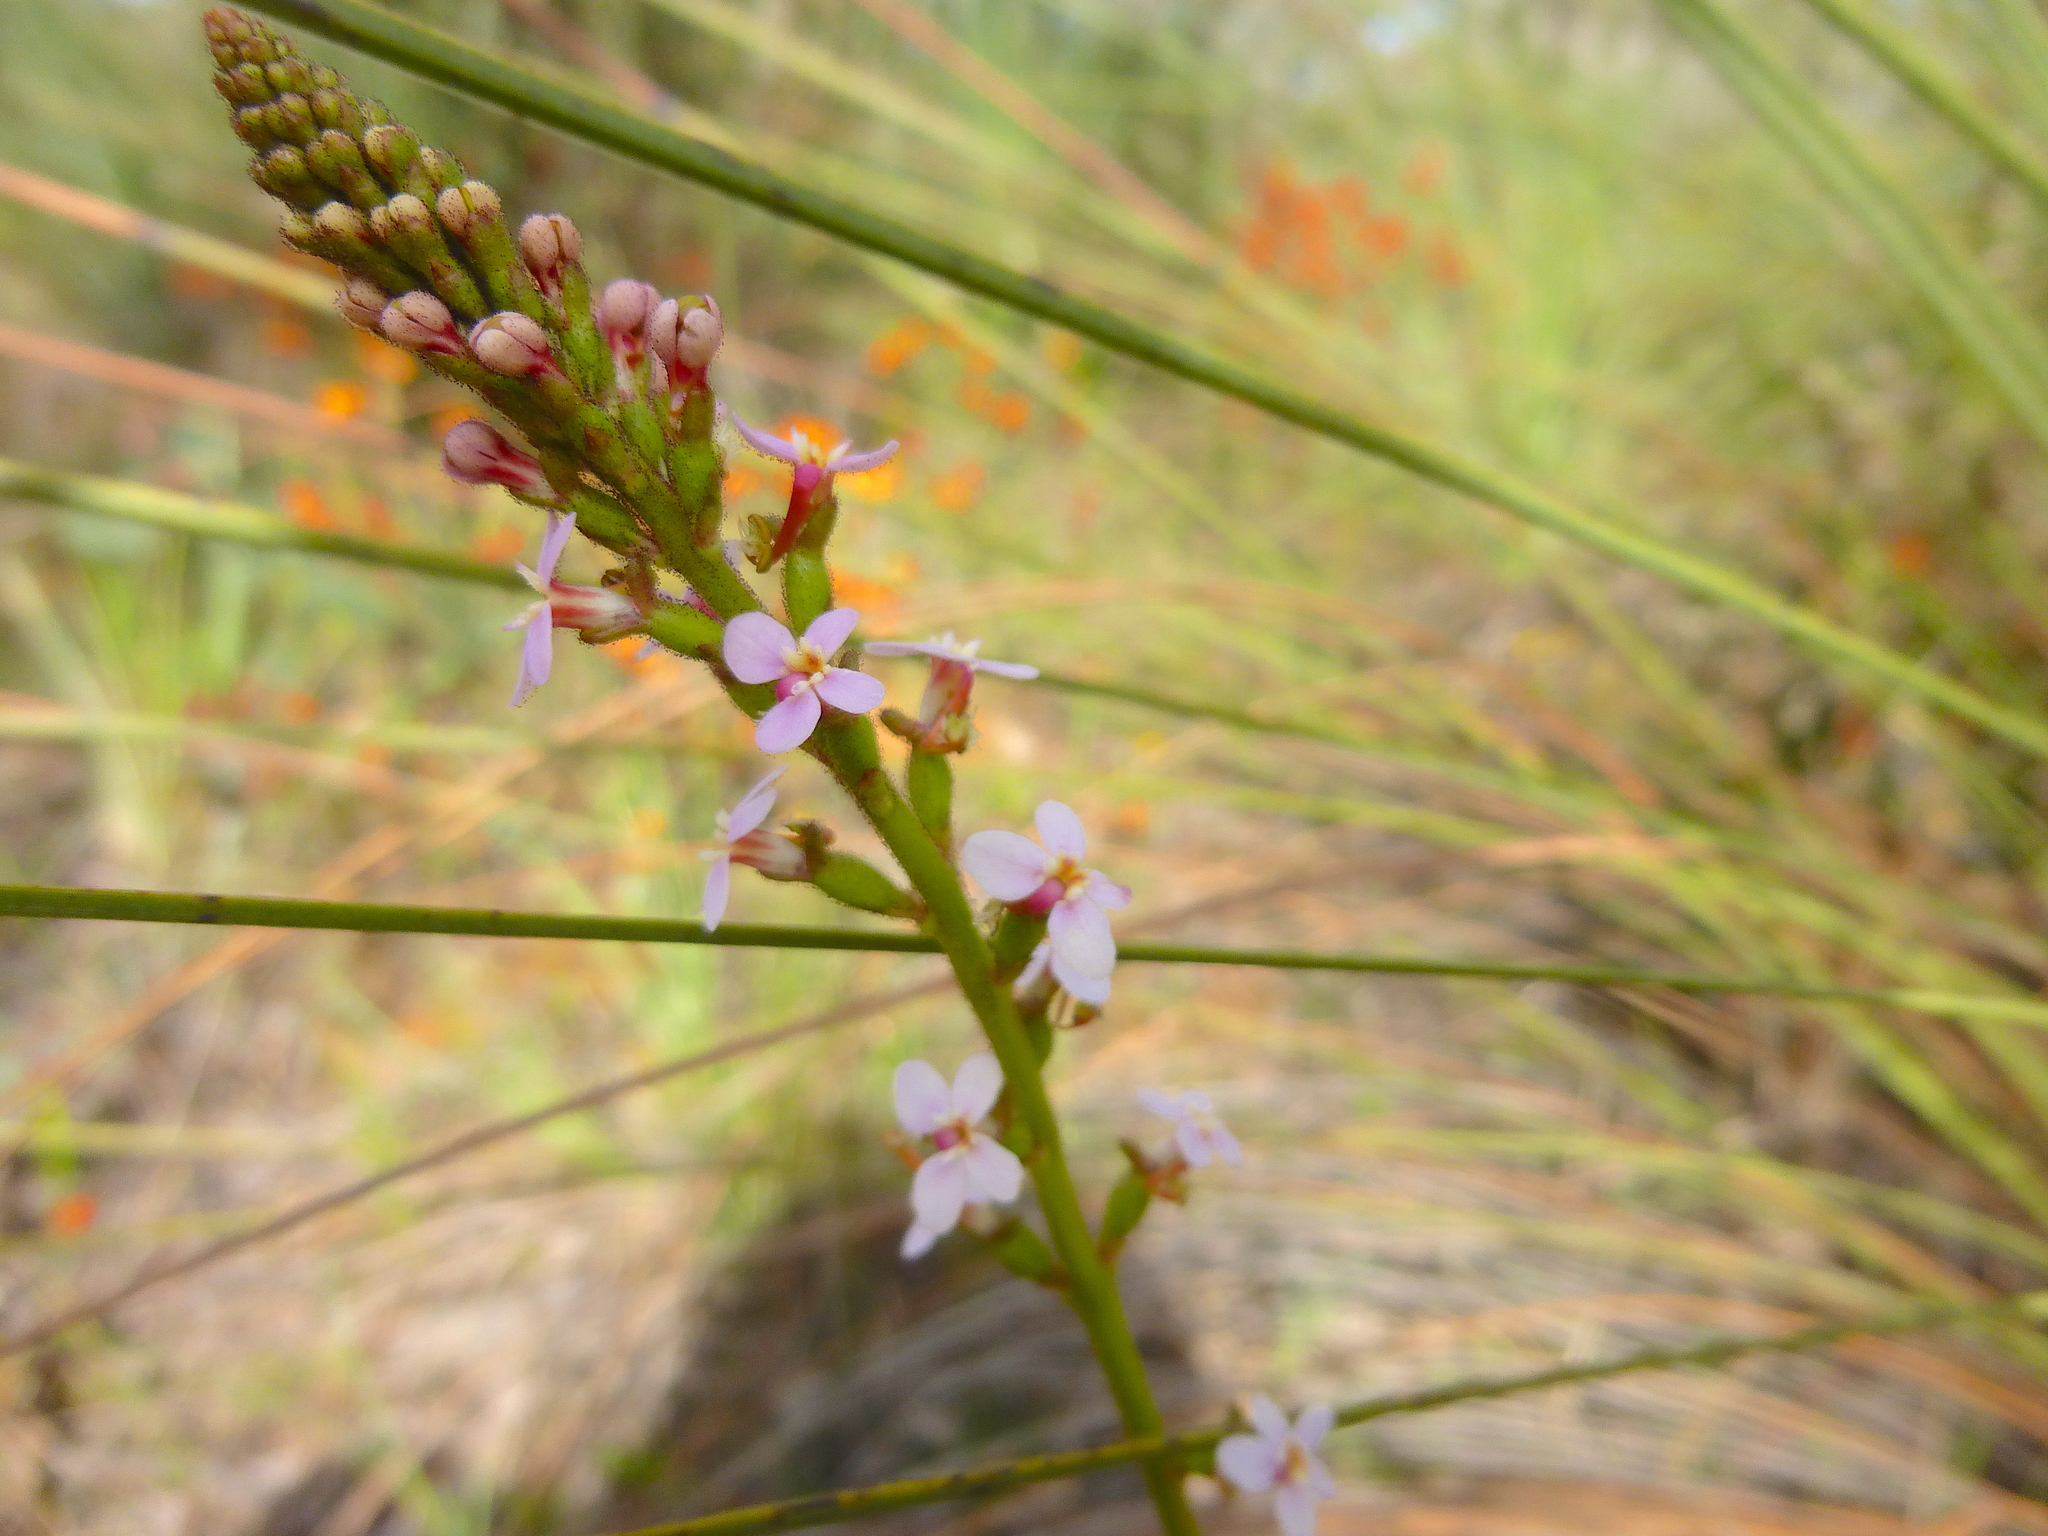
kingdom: Plantae
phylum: Tracheophyta
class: Magnoliopsida
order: Asterales
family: Stylidiaceae
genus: Stylidium
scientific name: Stylidium graminifolium
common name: Grass triggerplant
